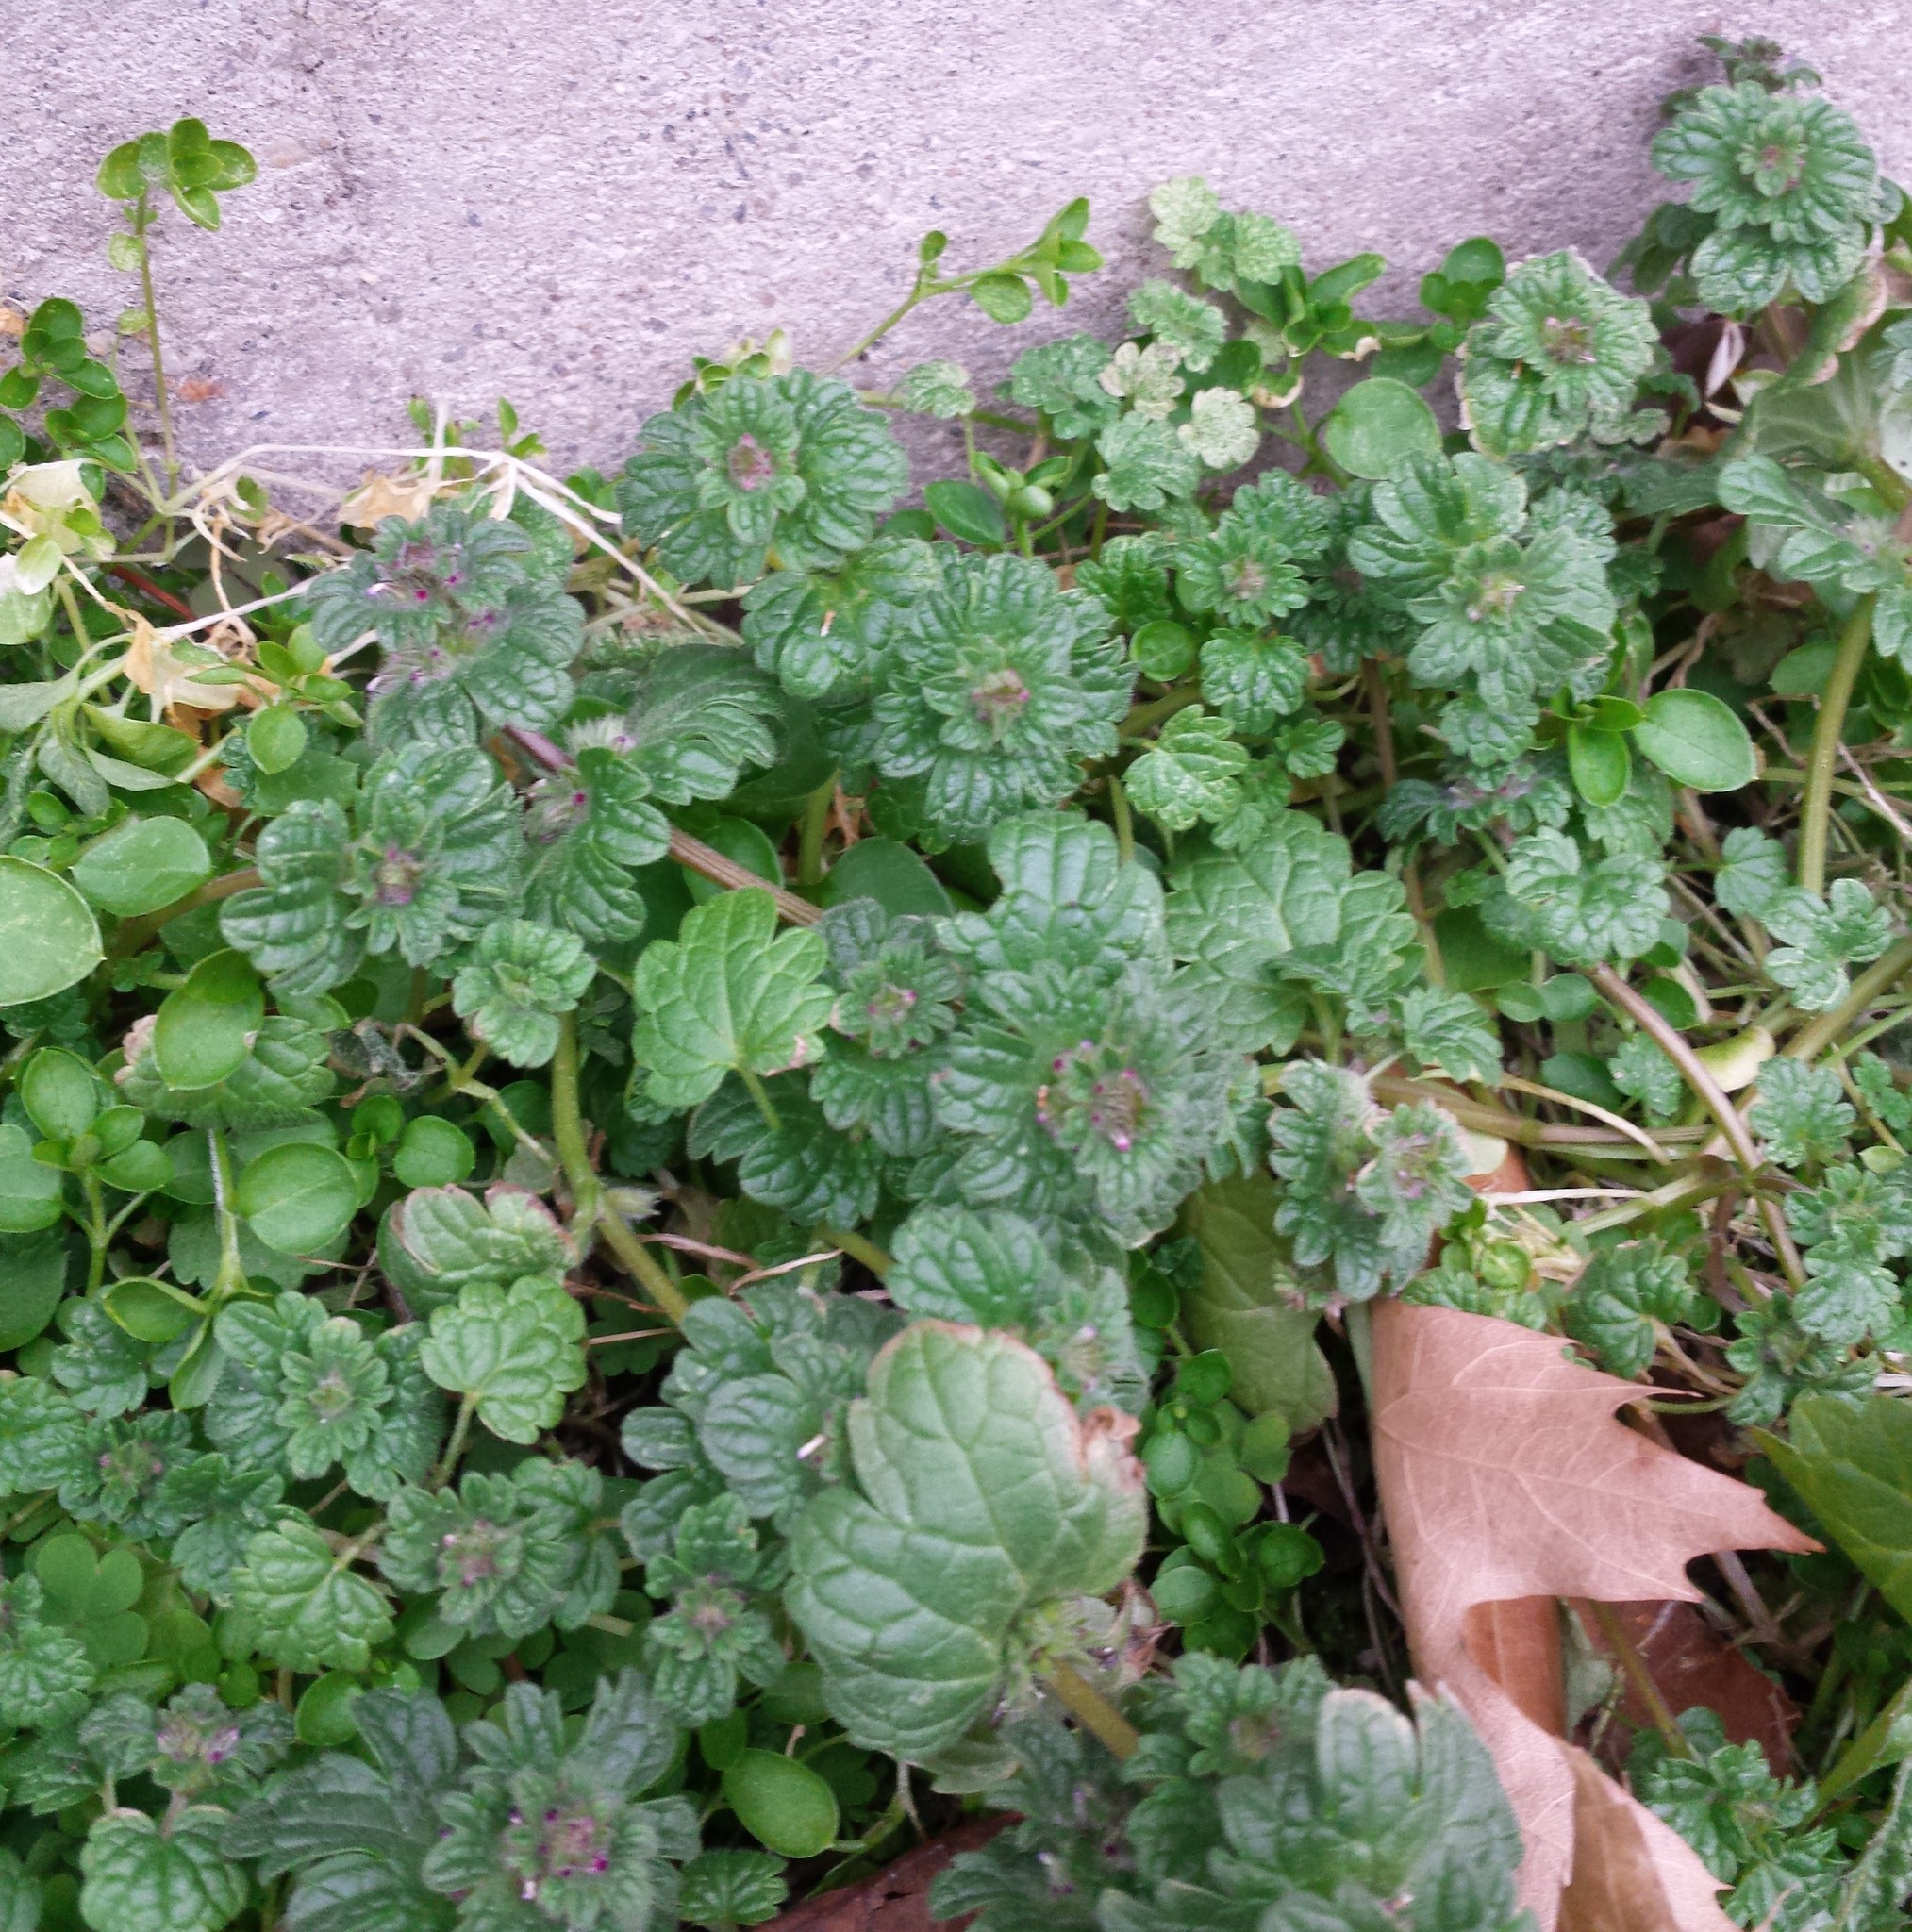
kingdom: Plantae
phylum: Tracheophyta
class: Magnoliopsida
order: Lamiales
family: Lamiaceae
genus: Lamium
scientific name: Lamium amplexicaule
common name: Henbit dead-nettle
